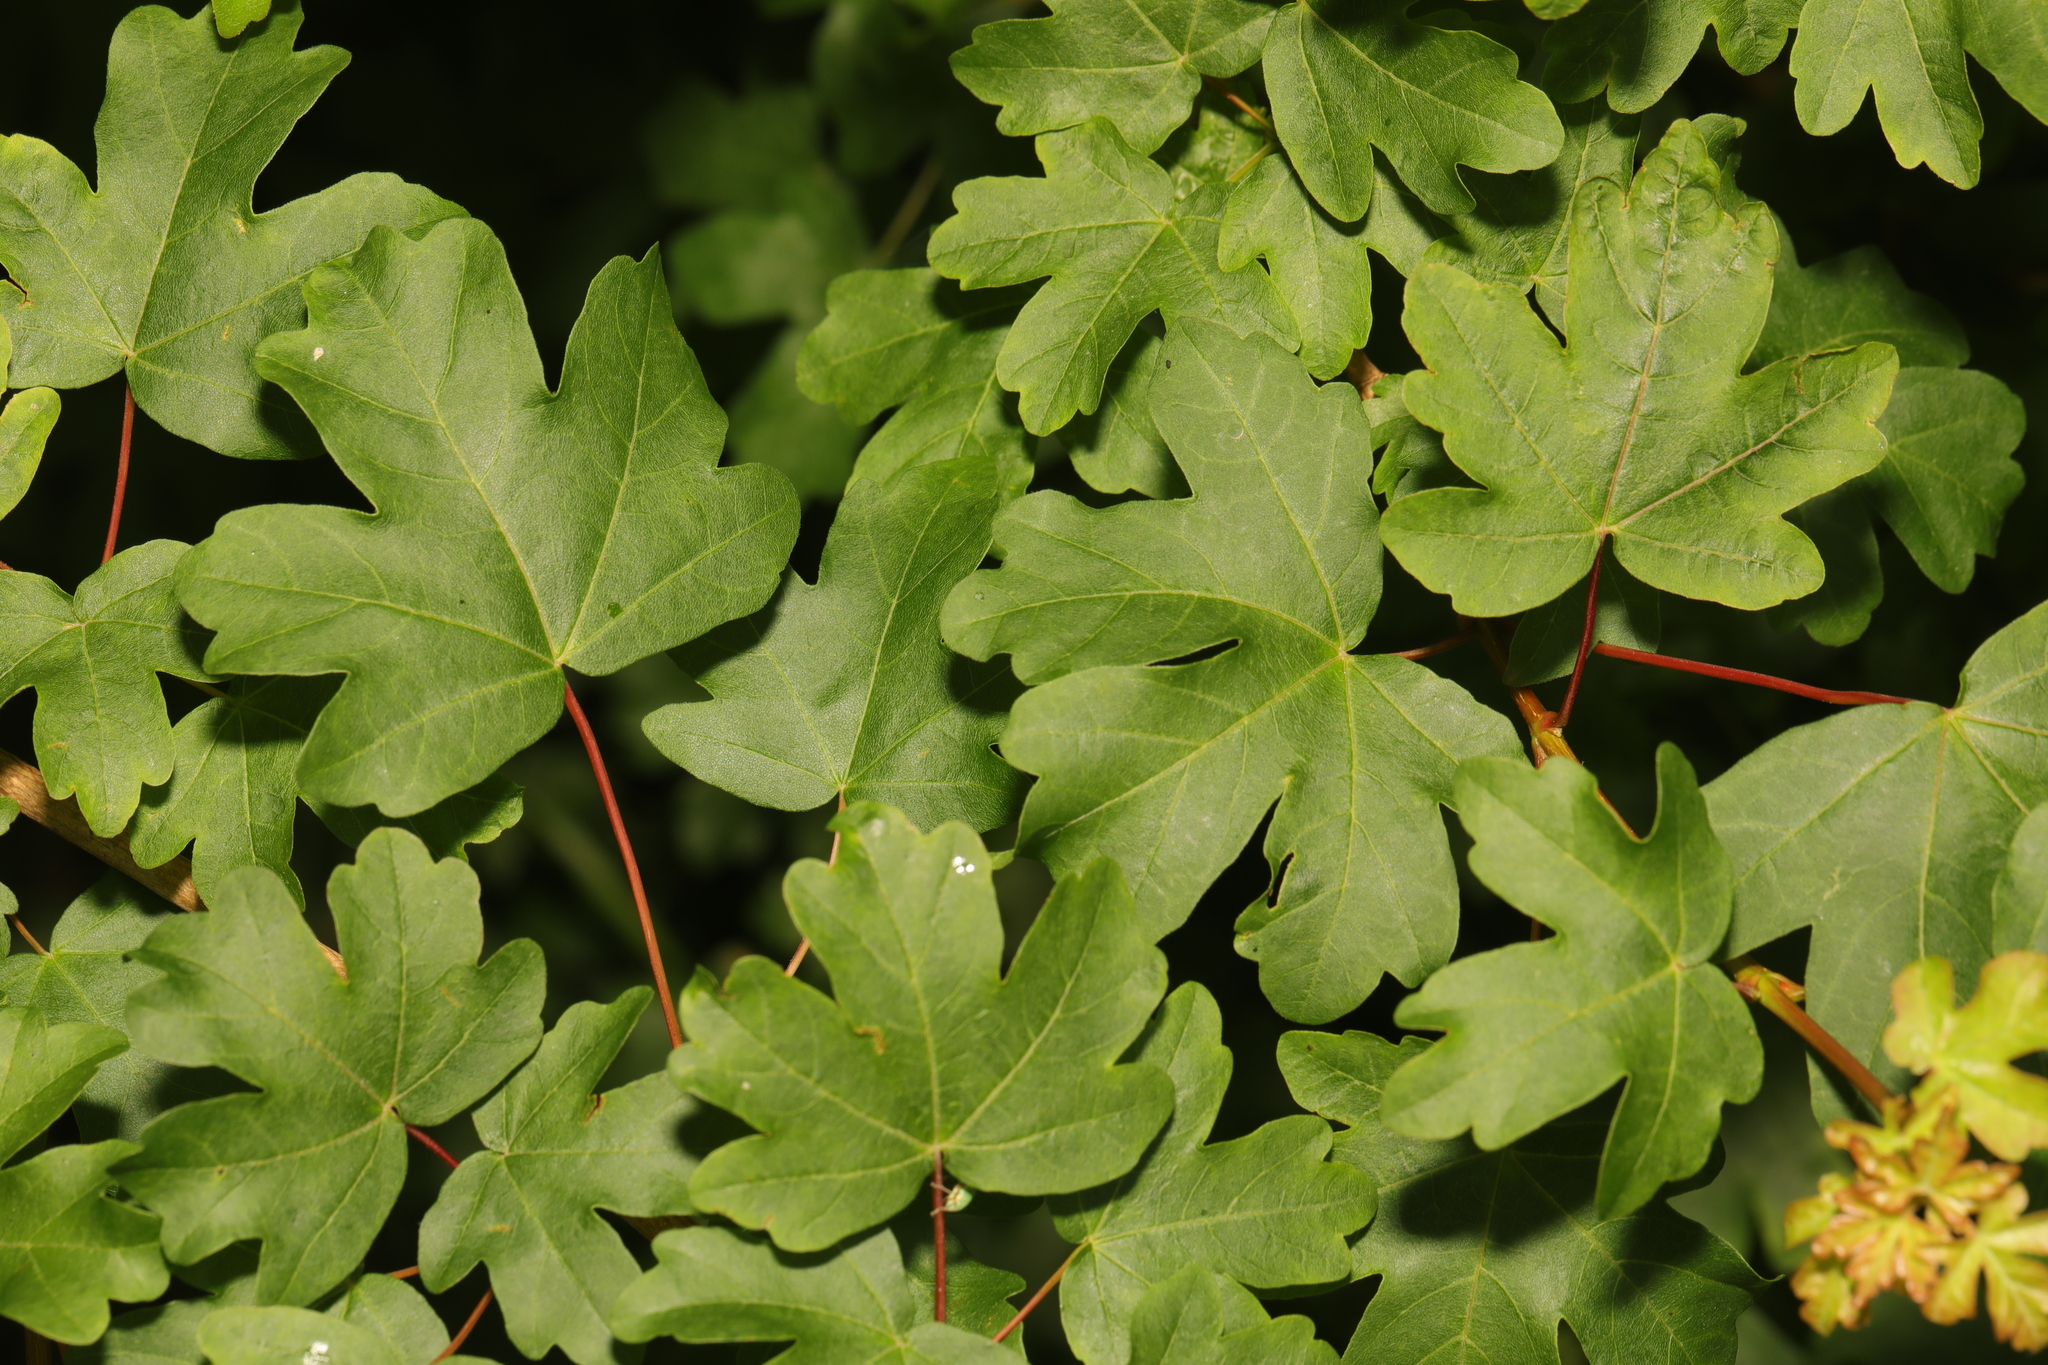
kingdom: Plantae
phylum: Tracheophyta
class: Magnoliopsida
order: Sapindales
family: Sapindaceae
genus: Acer
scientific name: Acer campestre
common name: Field maple
